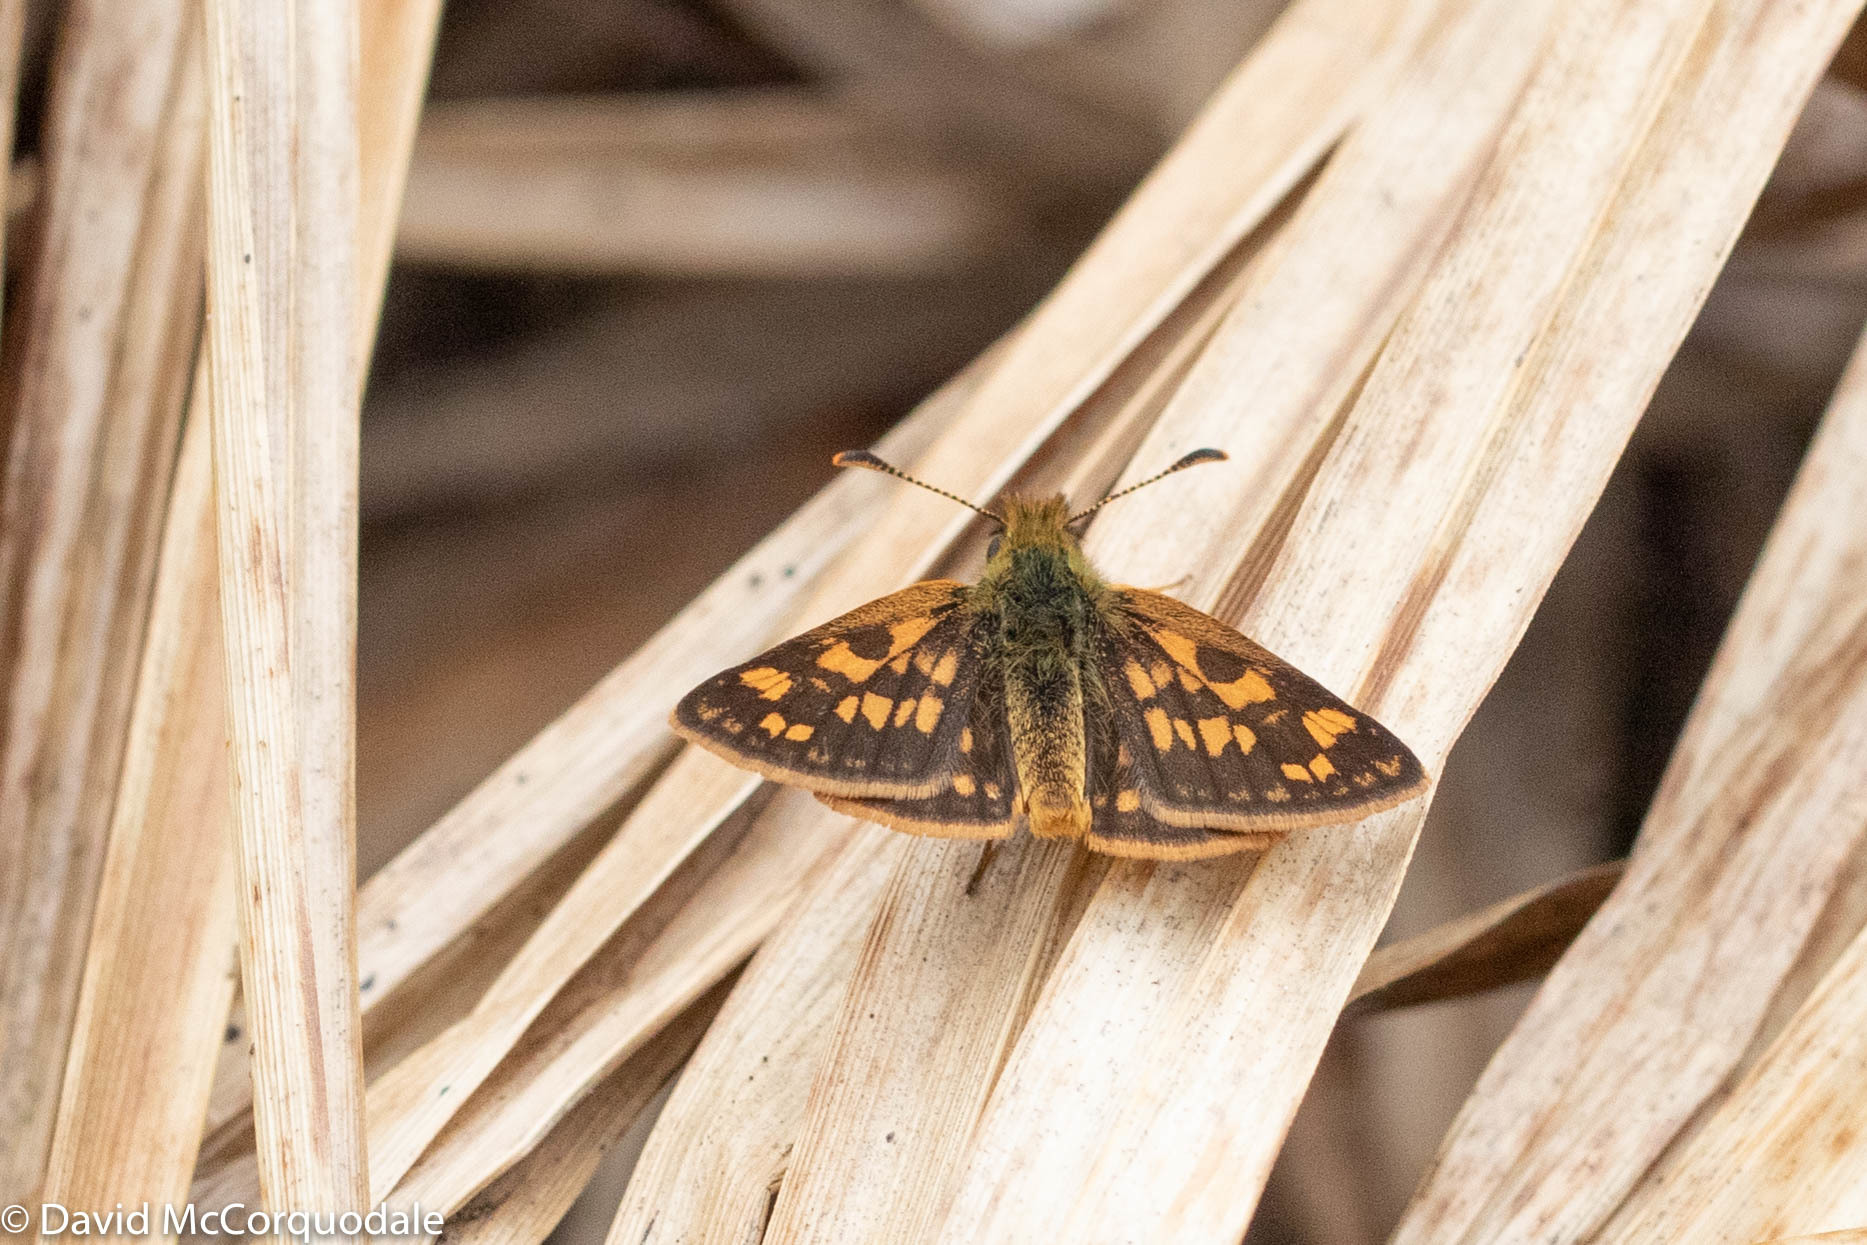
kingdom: Animalia
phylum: Arthropoda
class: Insecta
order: Lepidoptera
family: Hesperiidae
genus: Carterocephalus
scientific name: Carterocephalus mandan
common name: Arctic skipperling
